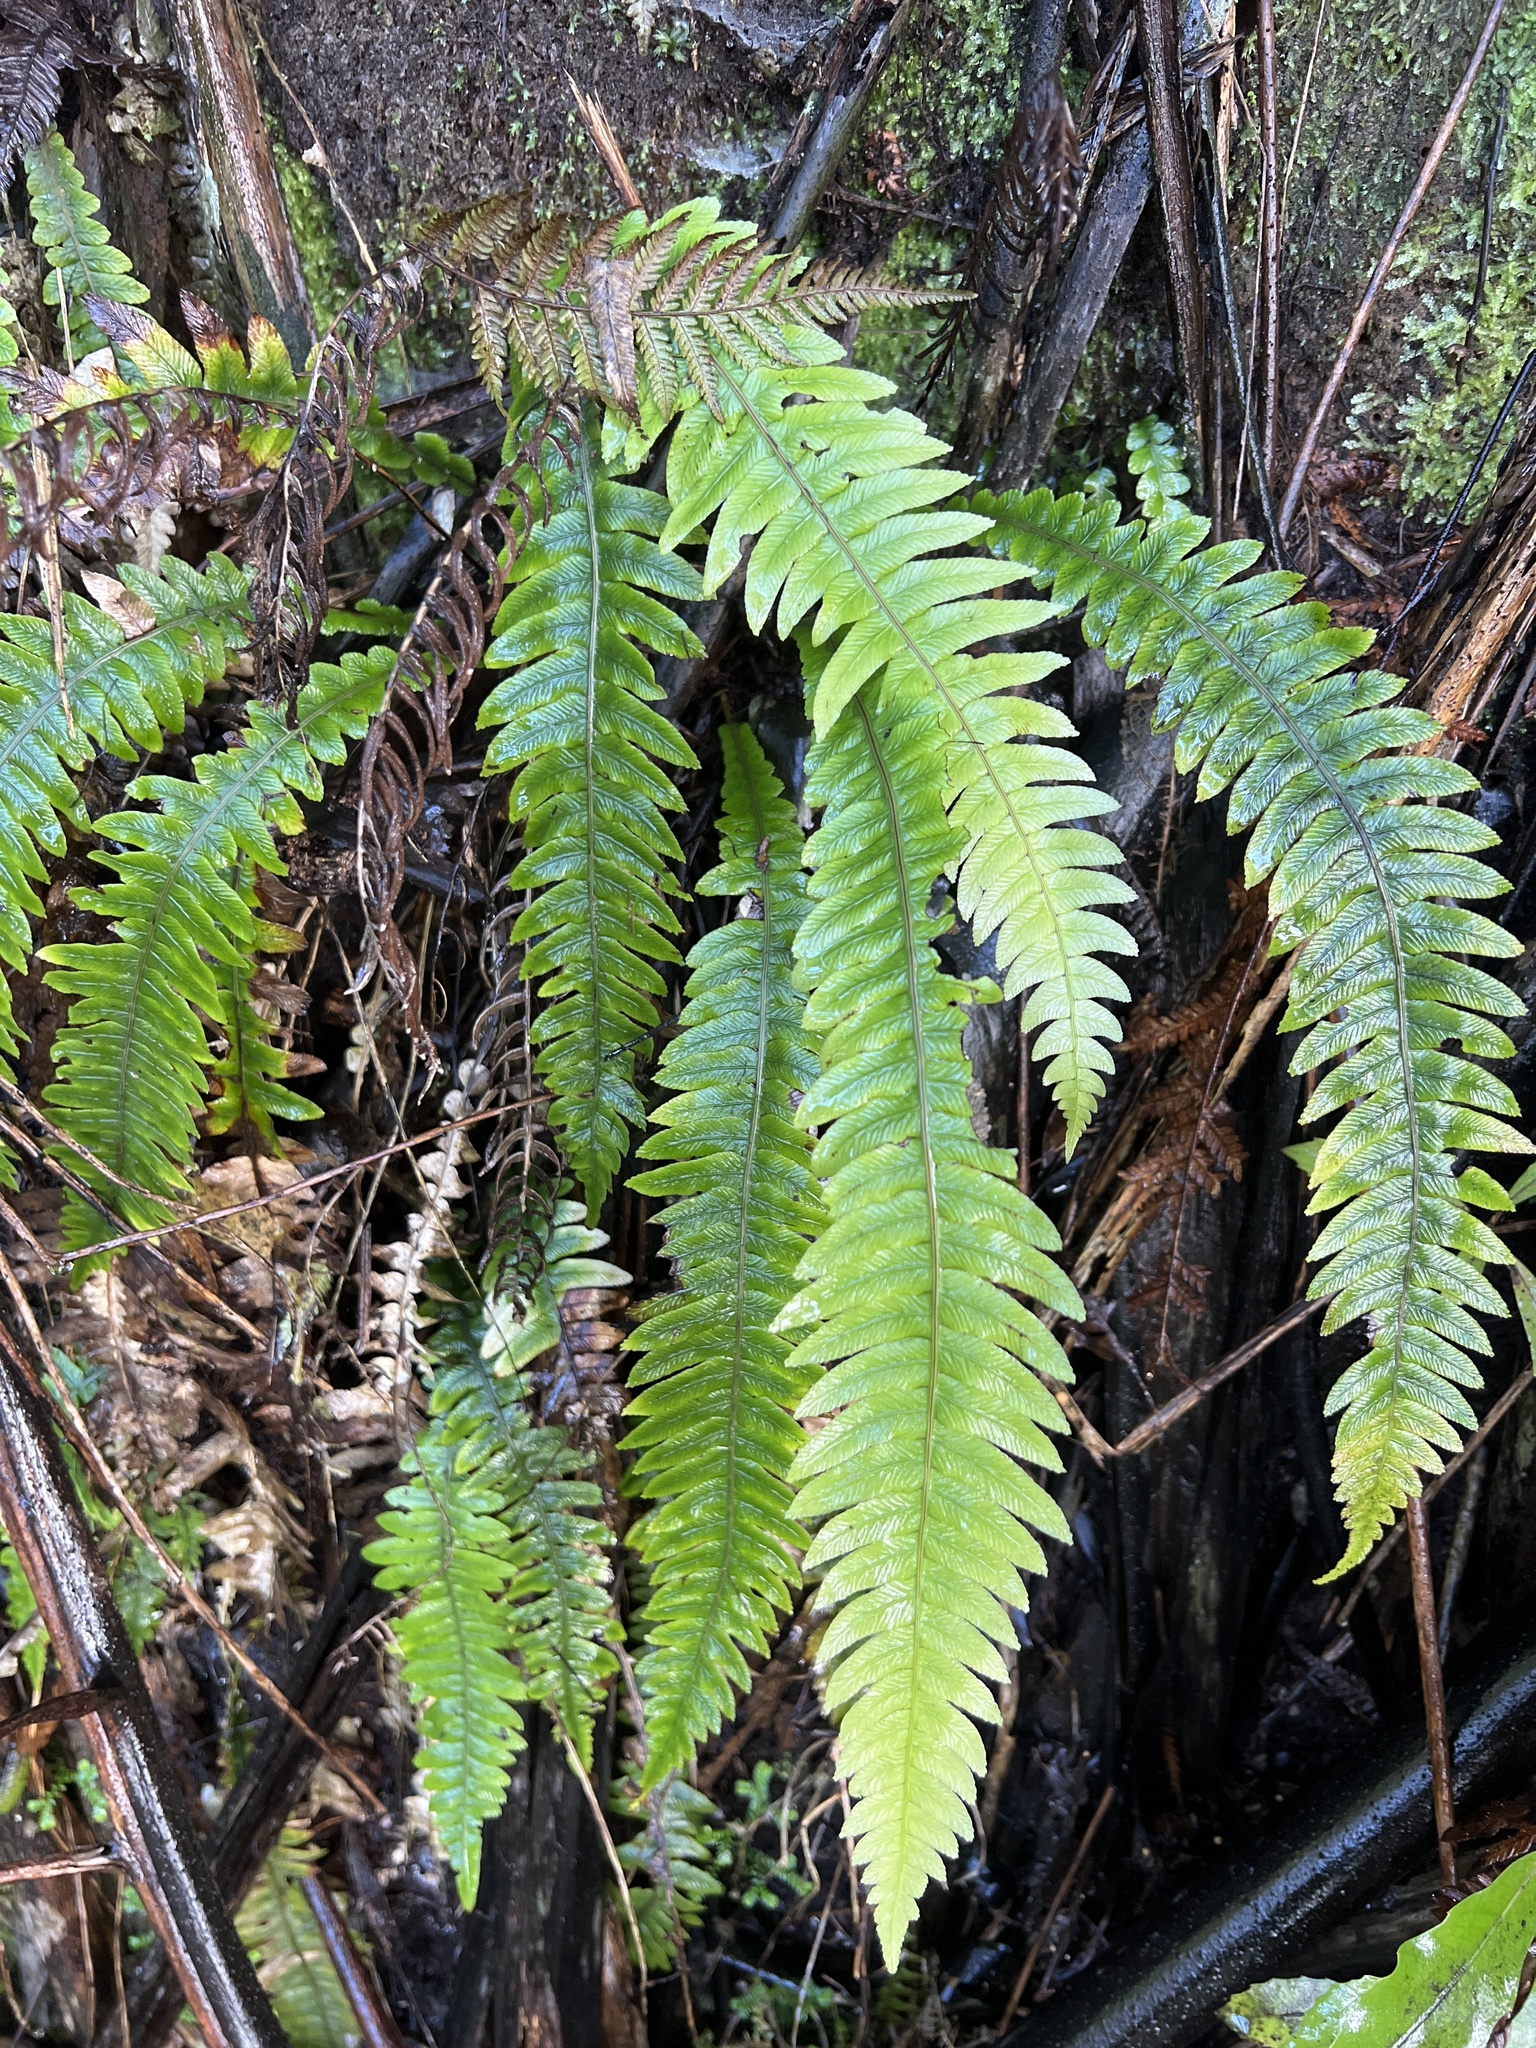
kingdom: Plantae
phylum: Tracheophyta
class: Polypodiopsida
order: Polypodiales
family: Blechnaceae
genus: Austroblechnum
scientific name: Austroblechnum lanceolatum
